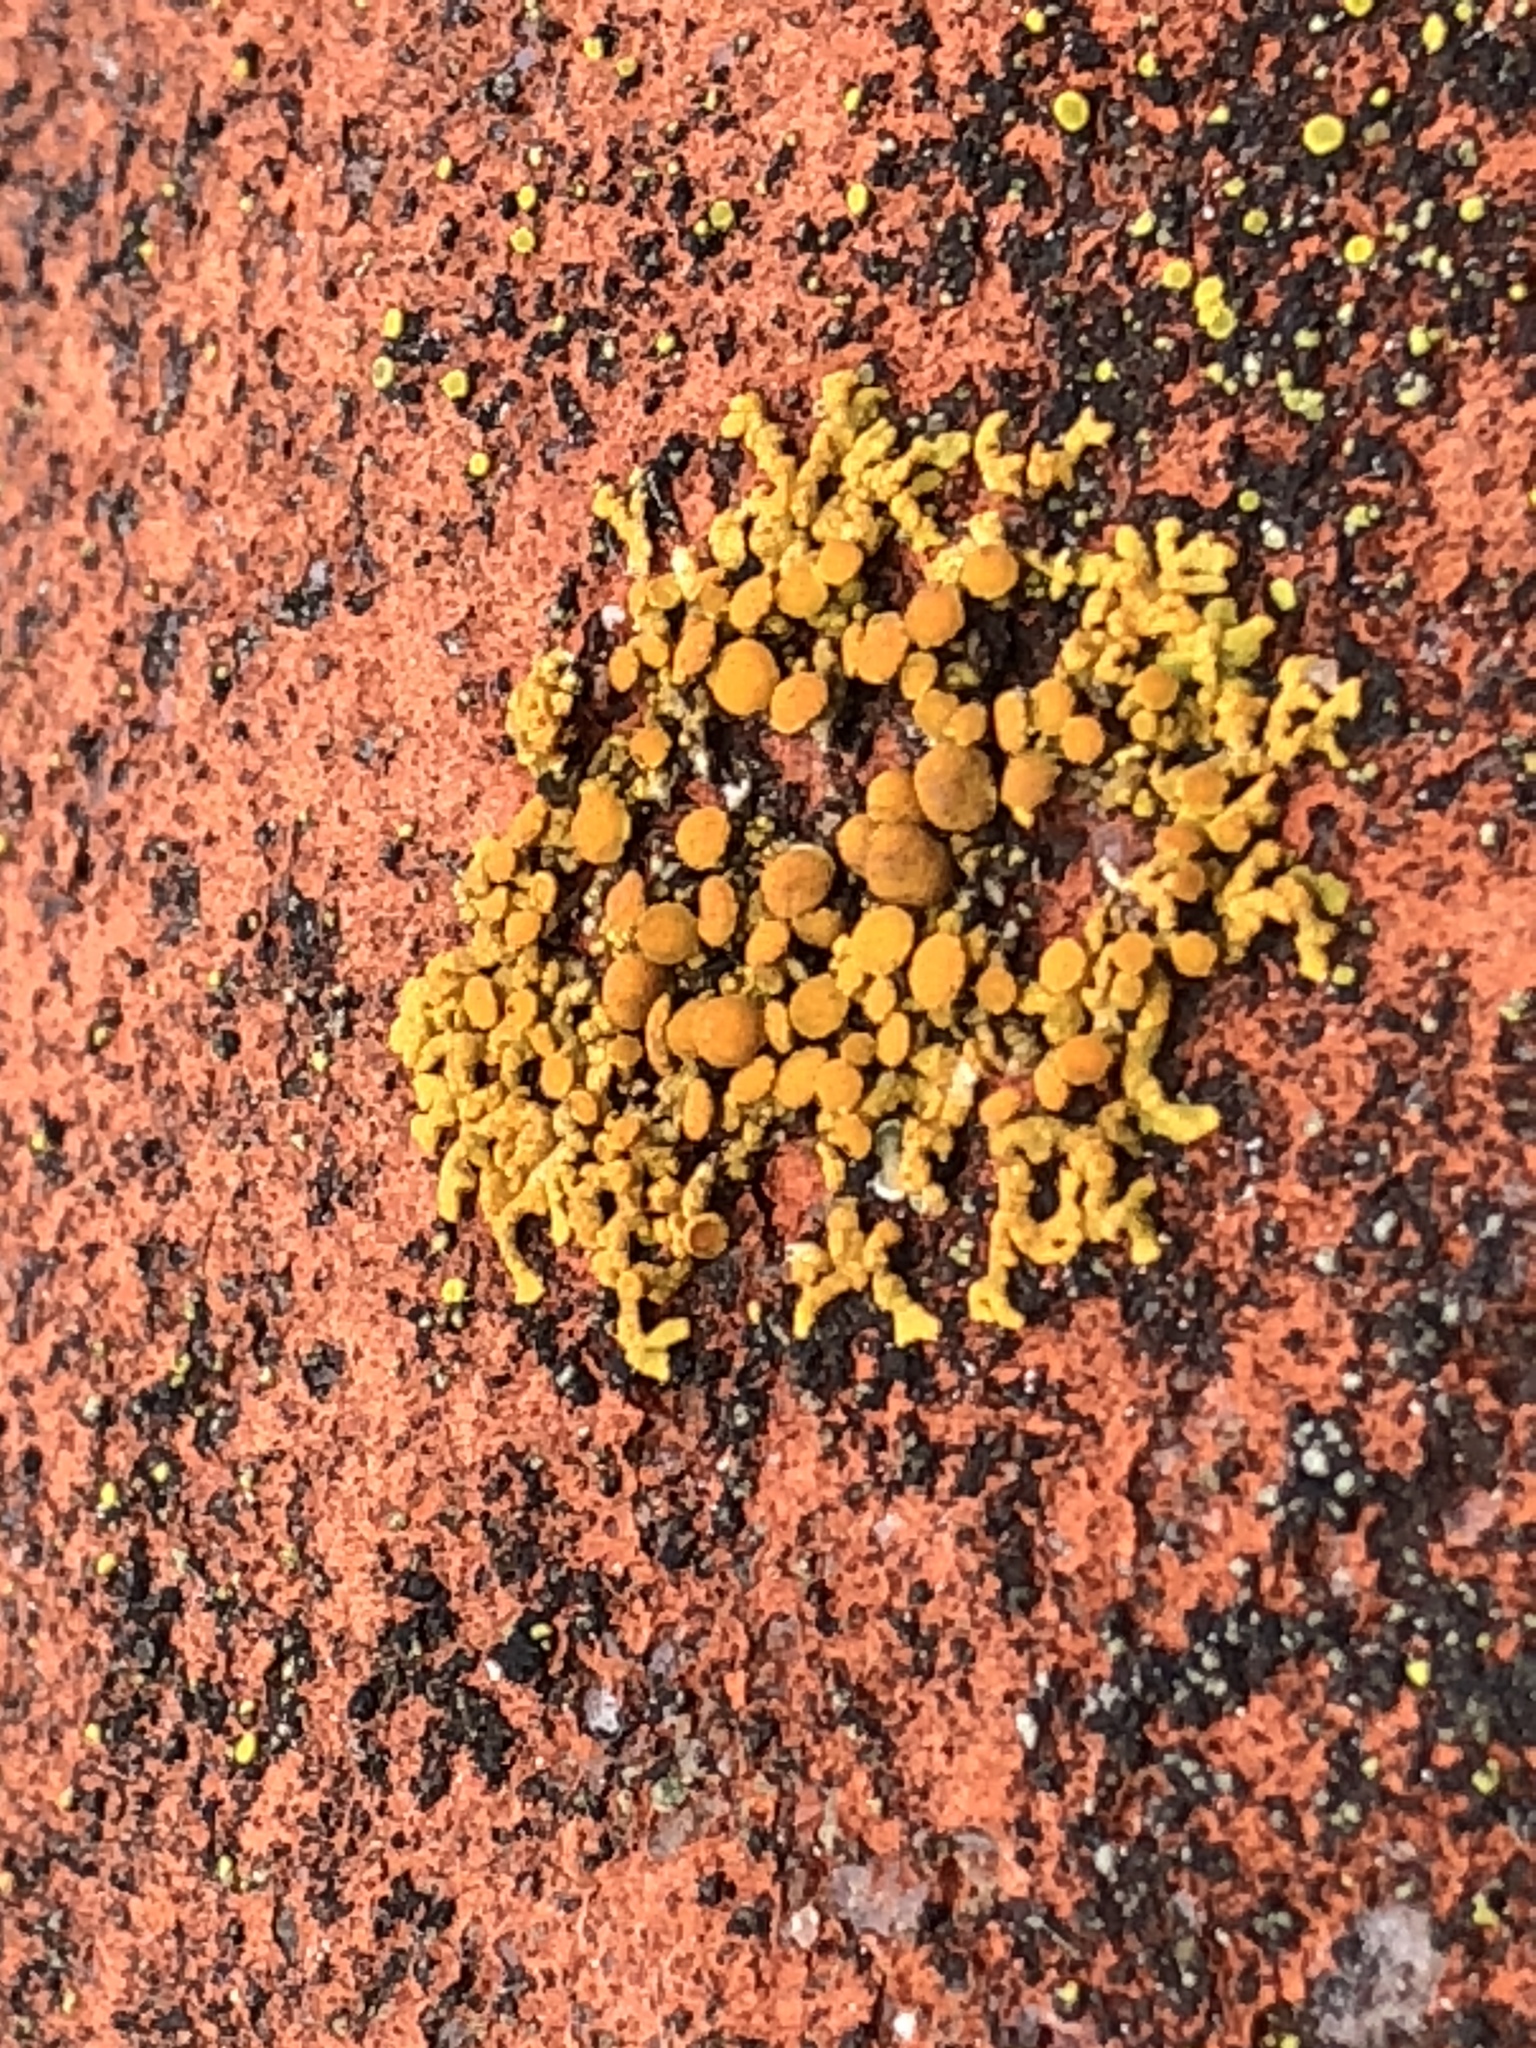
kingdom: Fungi
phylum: Ascomycota
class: Lecanoromycetes
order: Teloschistales
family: Teloschistaceae
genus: Xanthoria
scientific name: Xanthoria elegans
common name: Elegant sunburst lichen
